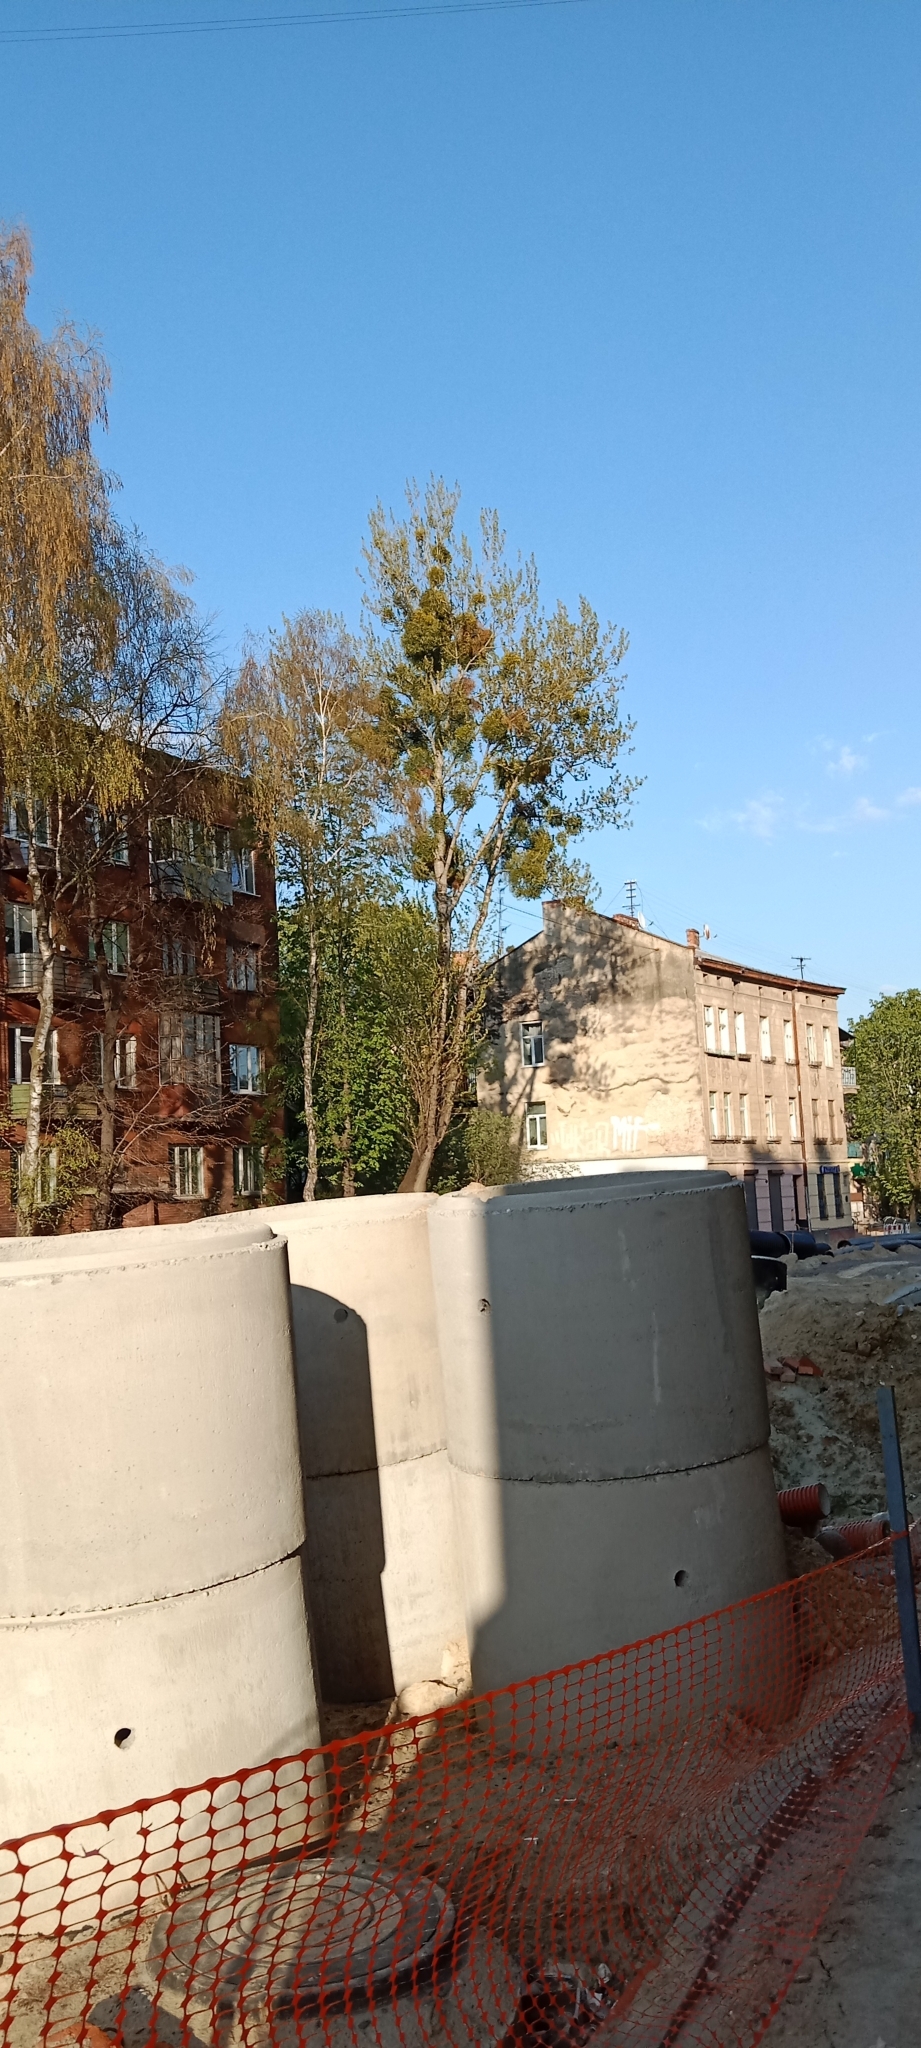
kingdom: Plantae
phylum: Tracheophyta
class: Magnoliopsida
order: Malpighiales
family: Salicaceae
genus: Populus
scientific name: Populus nigra
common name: Black poplar
